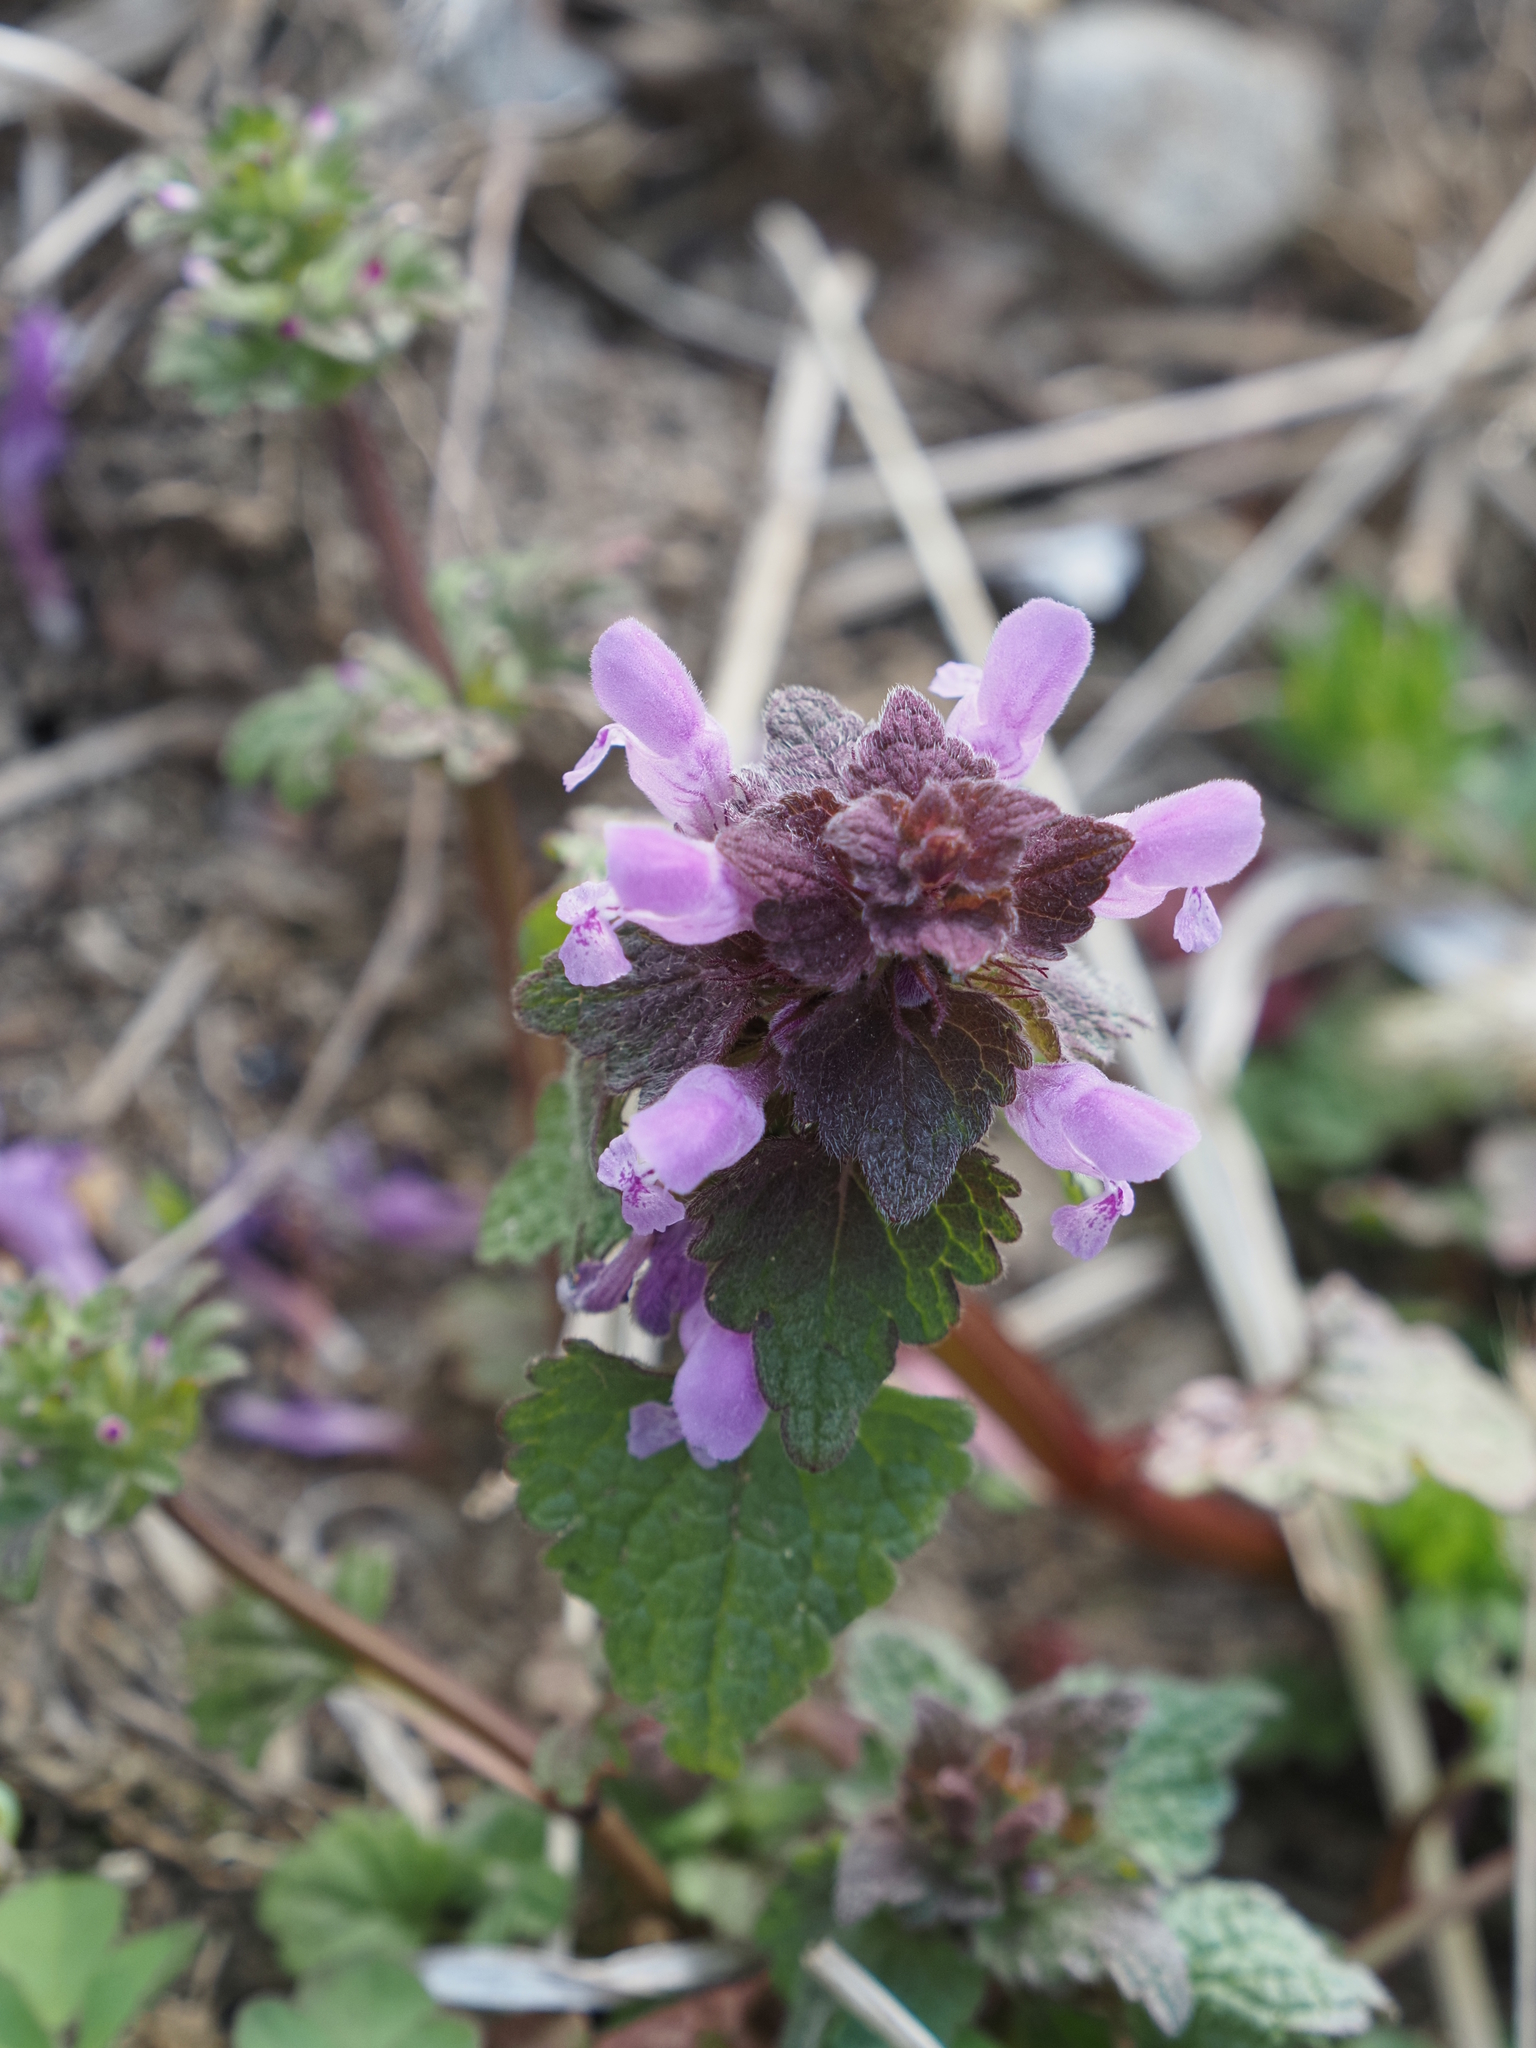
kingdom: Plantae
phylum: Tracheophyta
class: Magnoliopsida
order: Lamiales
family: Lamiaceae
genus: Lamium
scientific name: Lamium purpureum
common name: Red dead-nettle
